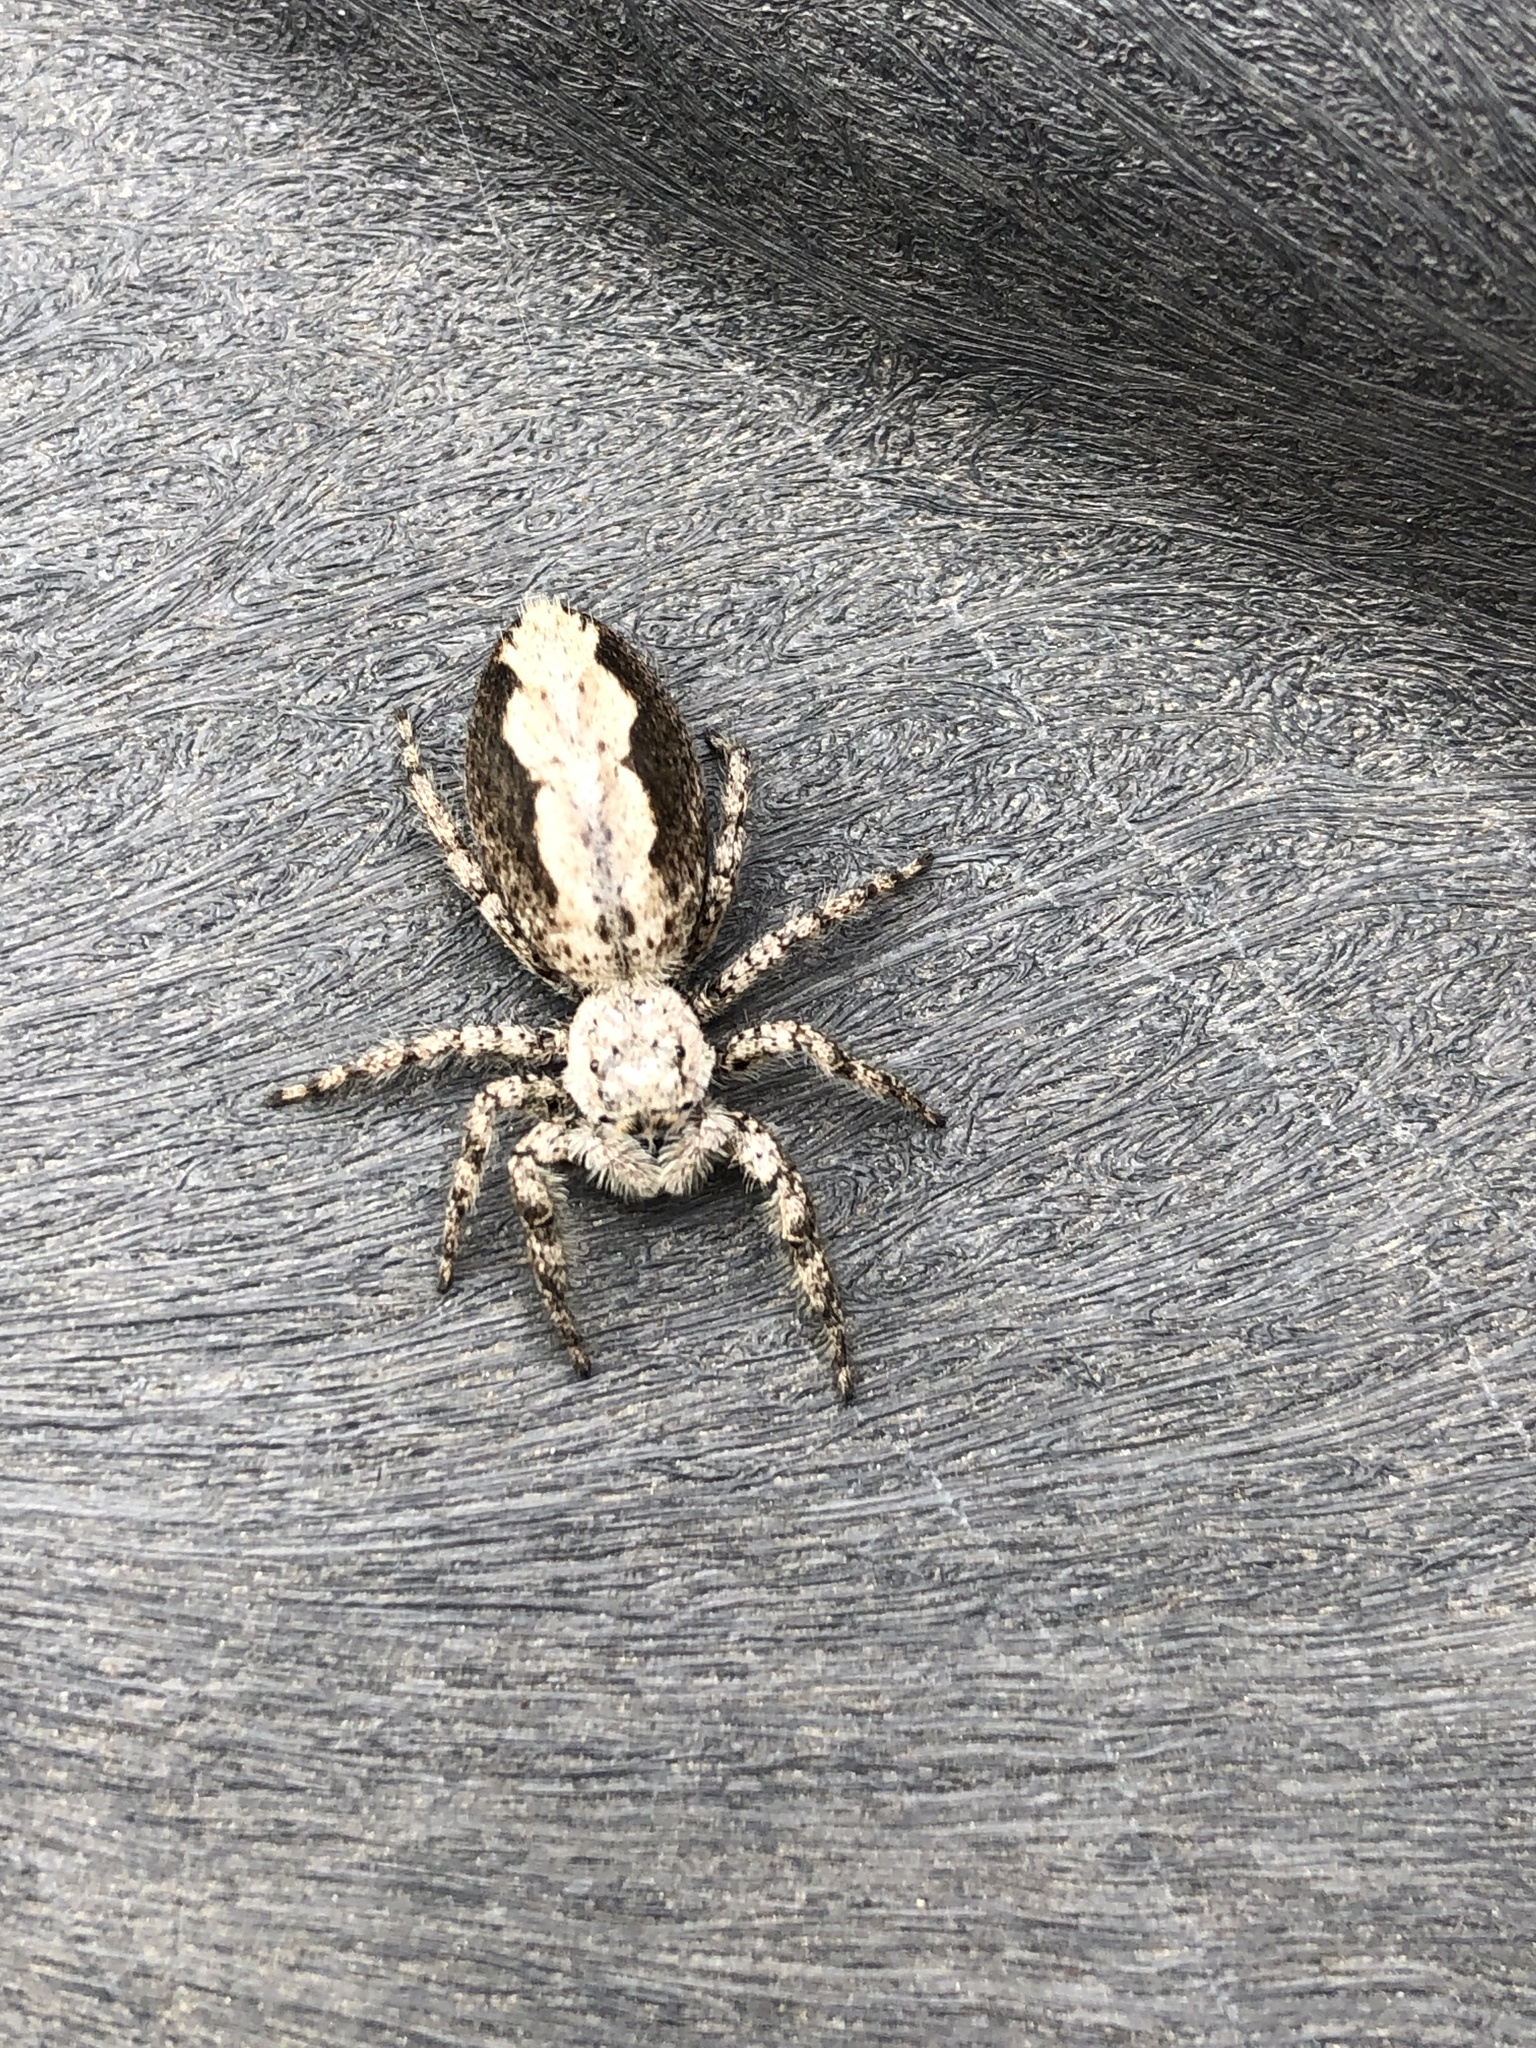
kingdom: Animalia
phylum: Arthropoda
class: Arachnida
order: Araneae
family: Salticidae
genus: Platycryptus
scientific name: Platycryptus undatus
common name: Tan jumping spider
